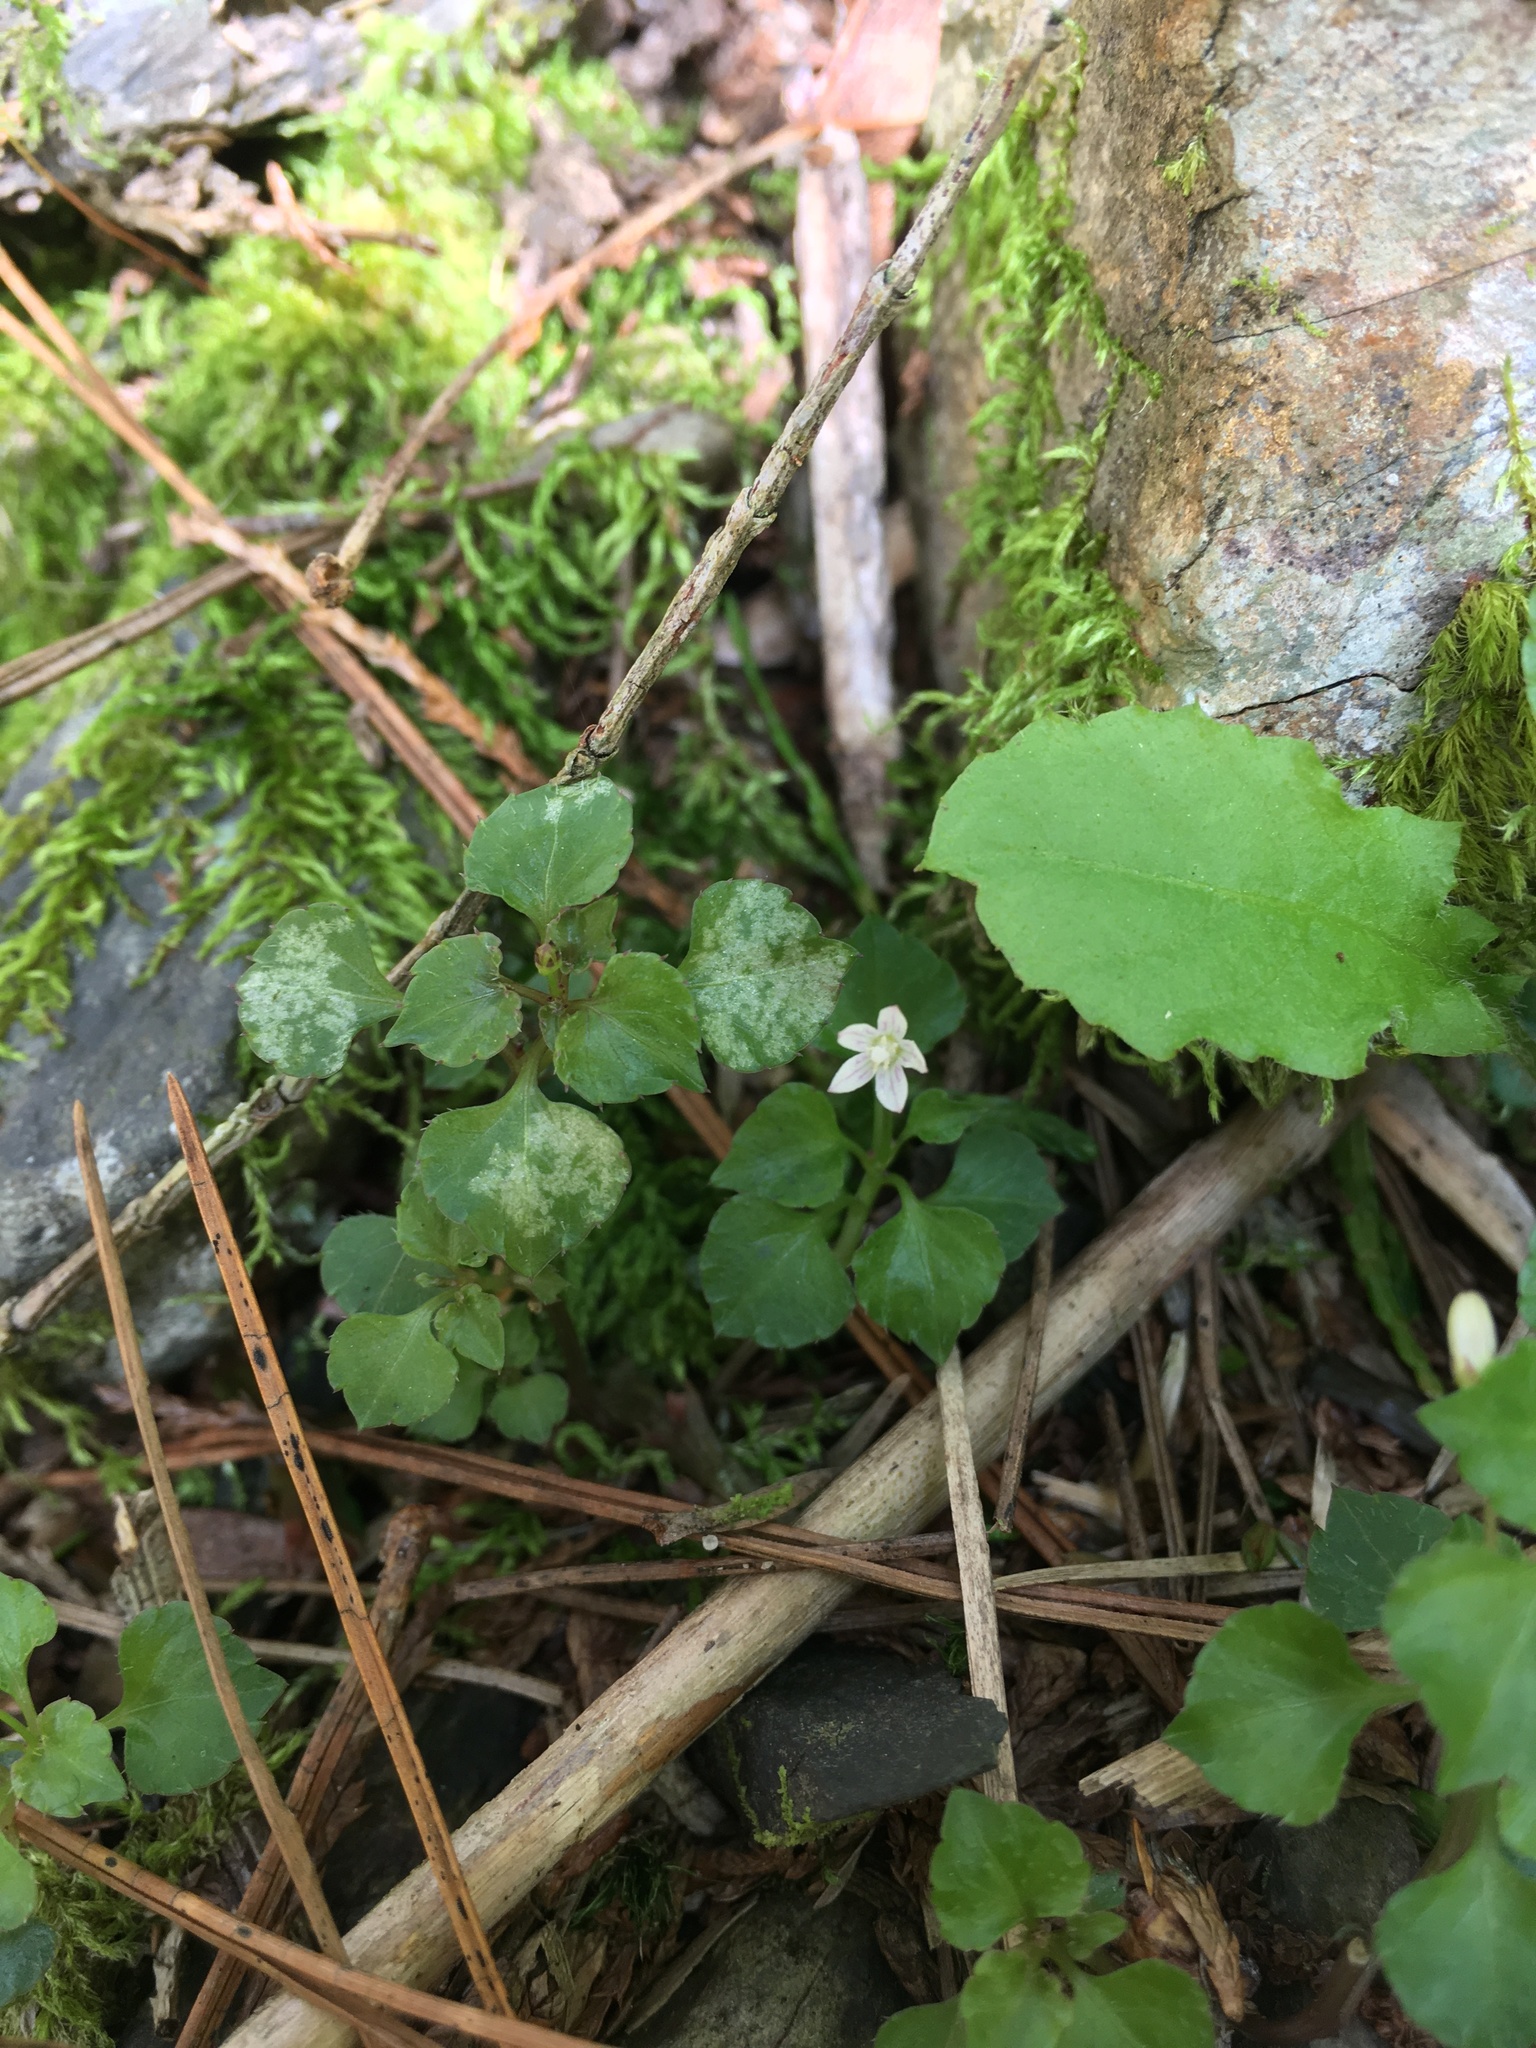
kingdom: Plantae
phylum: Tracheophyta
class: Magnoliopsida
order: Asterales
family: Campanulaceae
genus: Peracarpa
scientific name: Peracarpa carnosa
